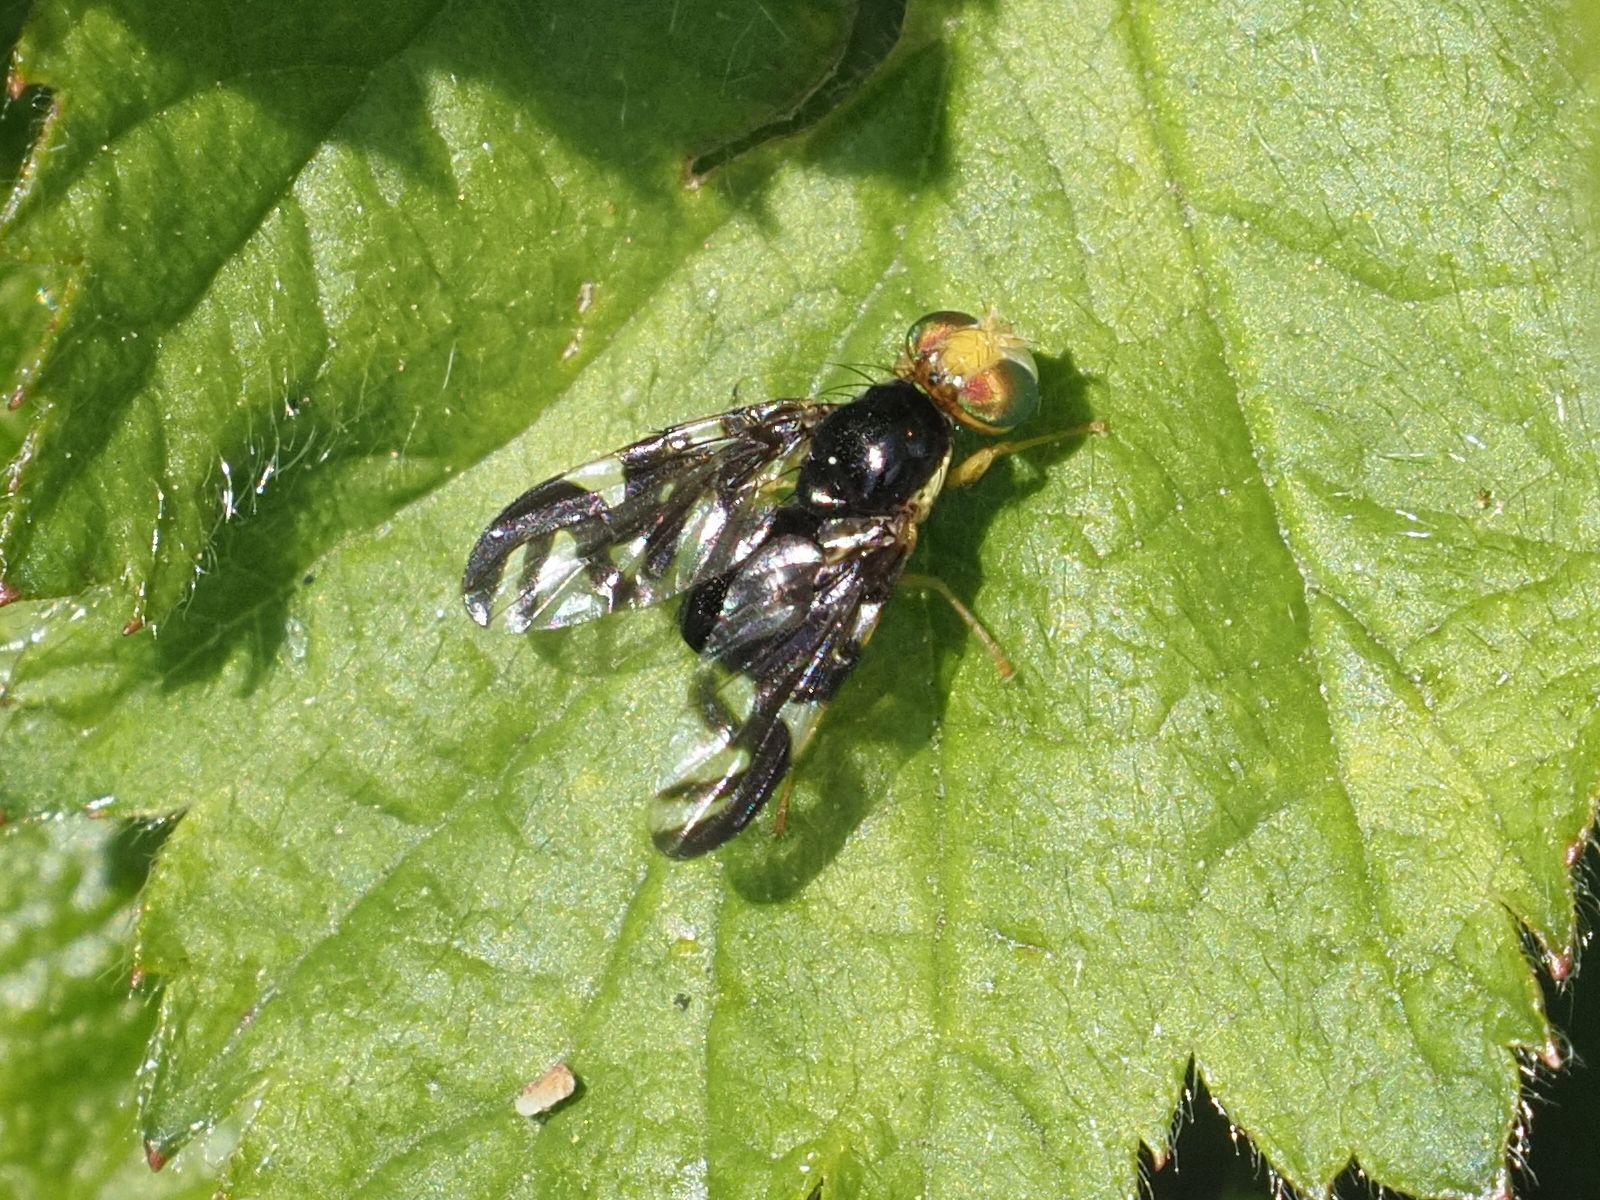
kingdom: Animalia
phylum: Arthropoda
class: Insecta
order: Diptera
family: Tephritidae
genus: Euleia
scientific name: Euleia heraclei
